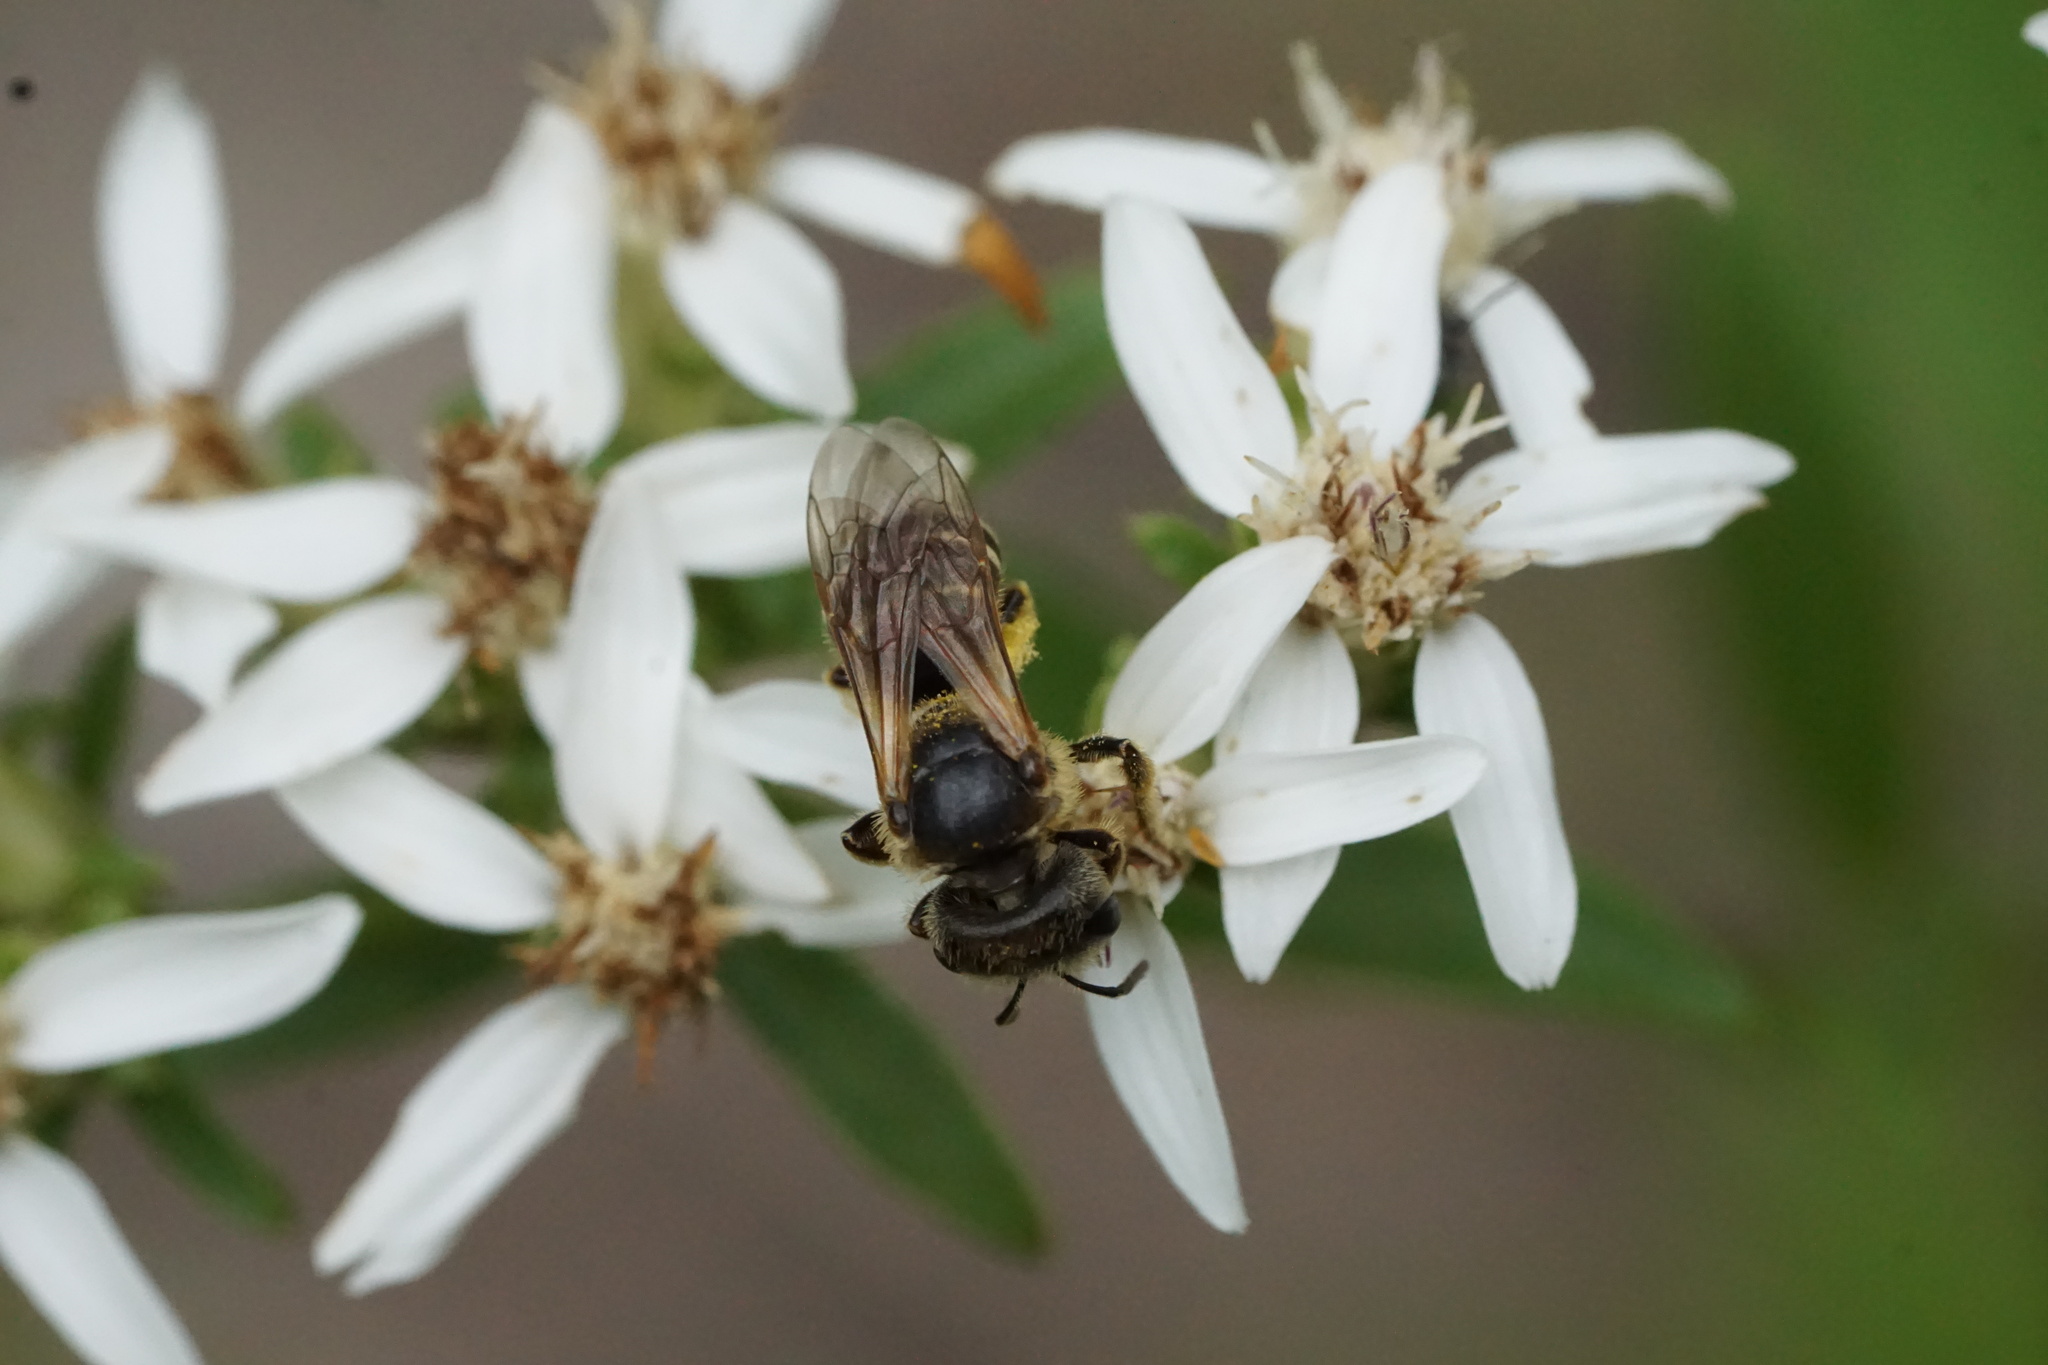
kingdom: Animalia
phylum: Arthropoda
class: Insecta
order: Hymenoptera
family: Halictidae
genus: Halictus
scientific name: Halictus ligatus
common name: Ligated furrow bee
